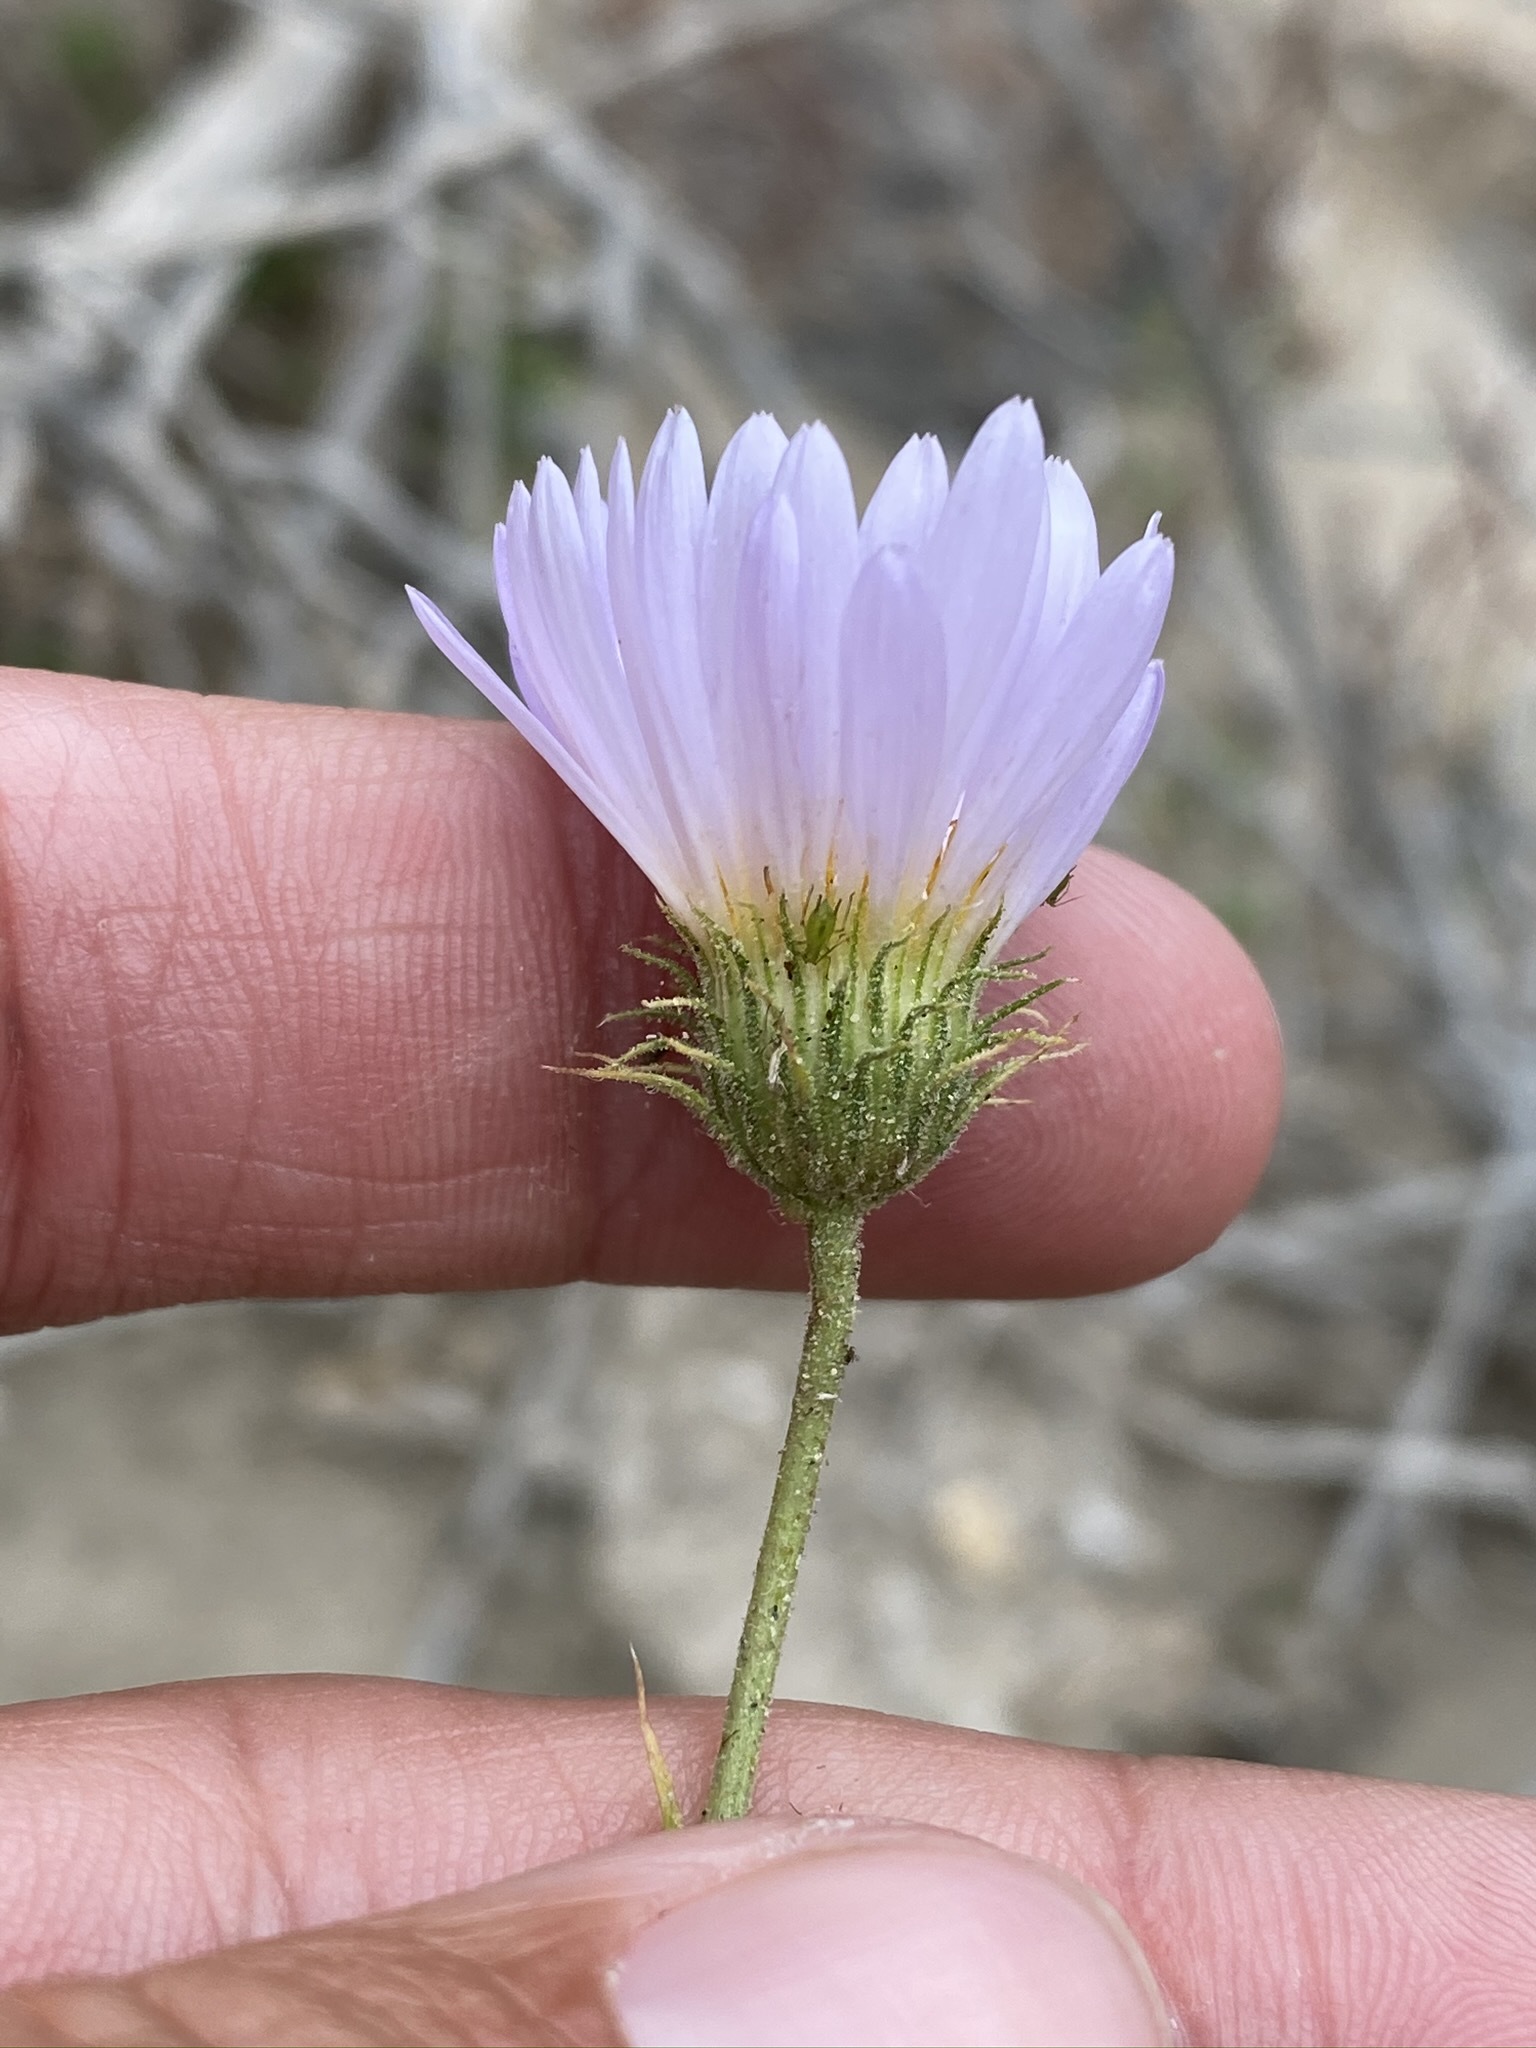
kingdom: Plantae
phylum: Tracheophyta
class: Magnoliopsida
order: Asterales
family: Asteraceae
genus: Xylorhiza
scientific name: Xylorhiza tortifolia
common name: Hurt-leaf woody-aster
